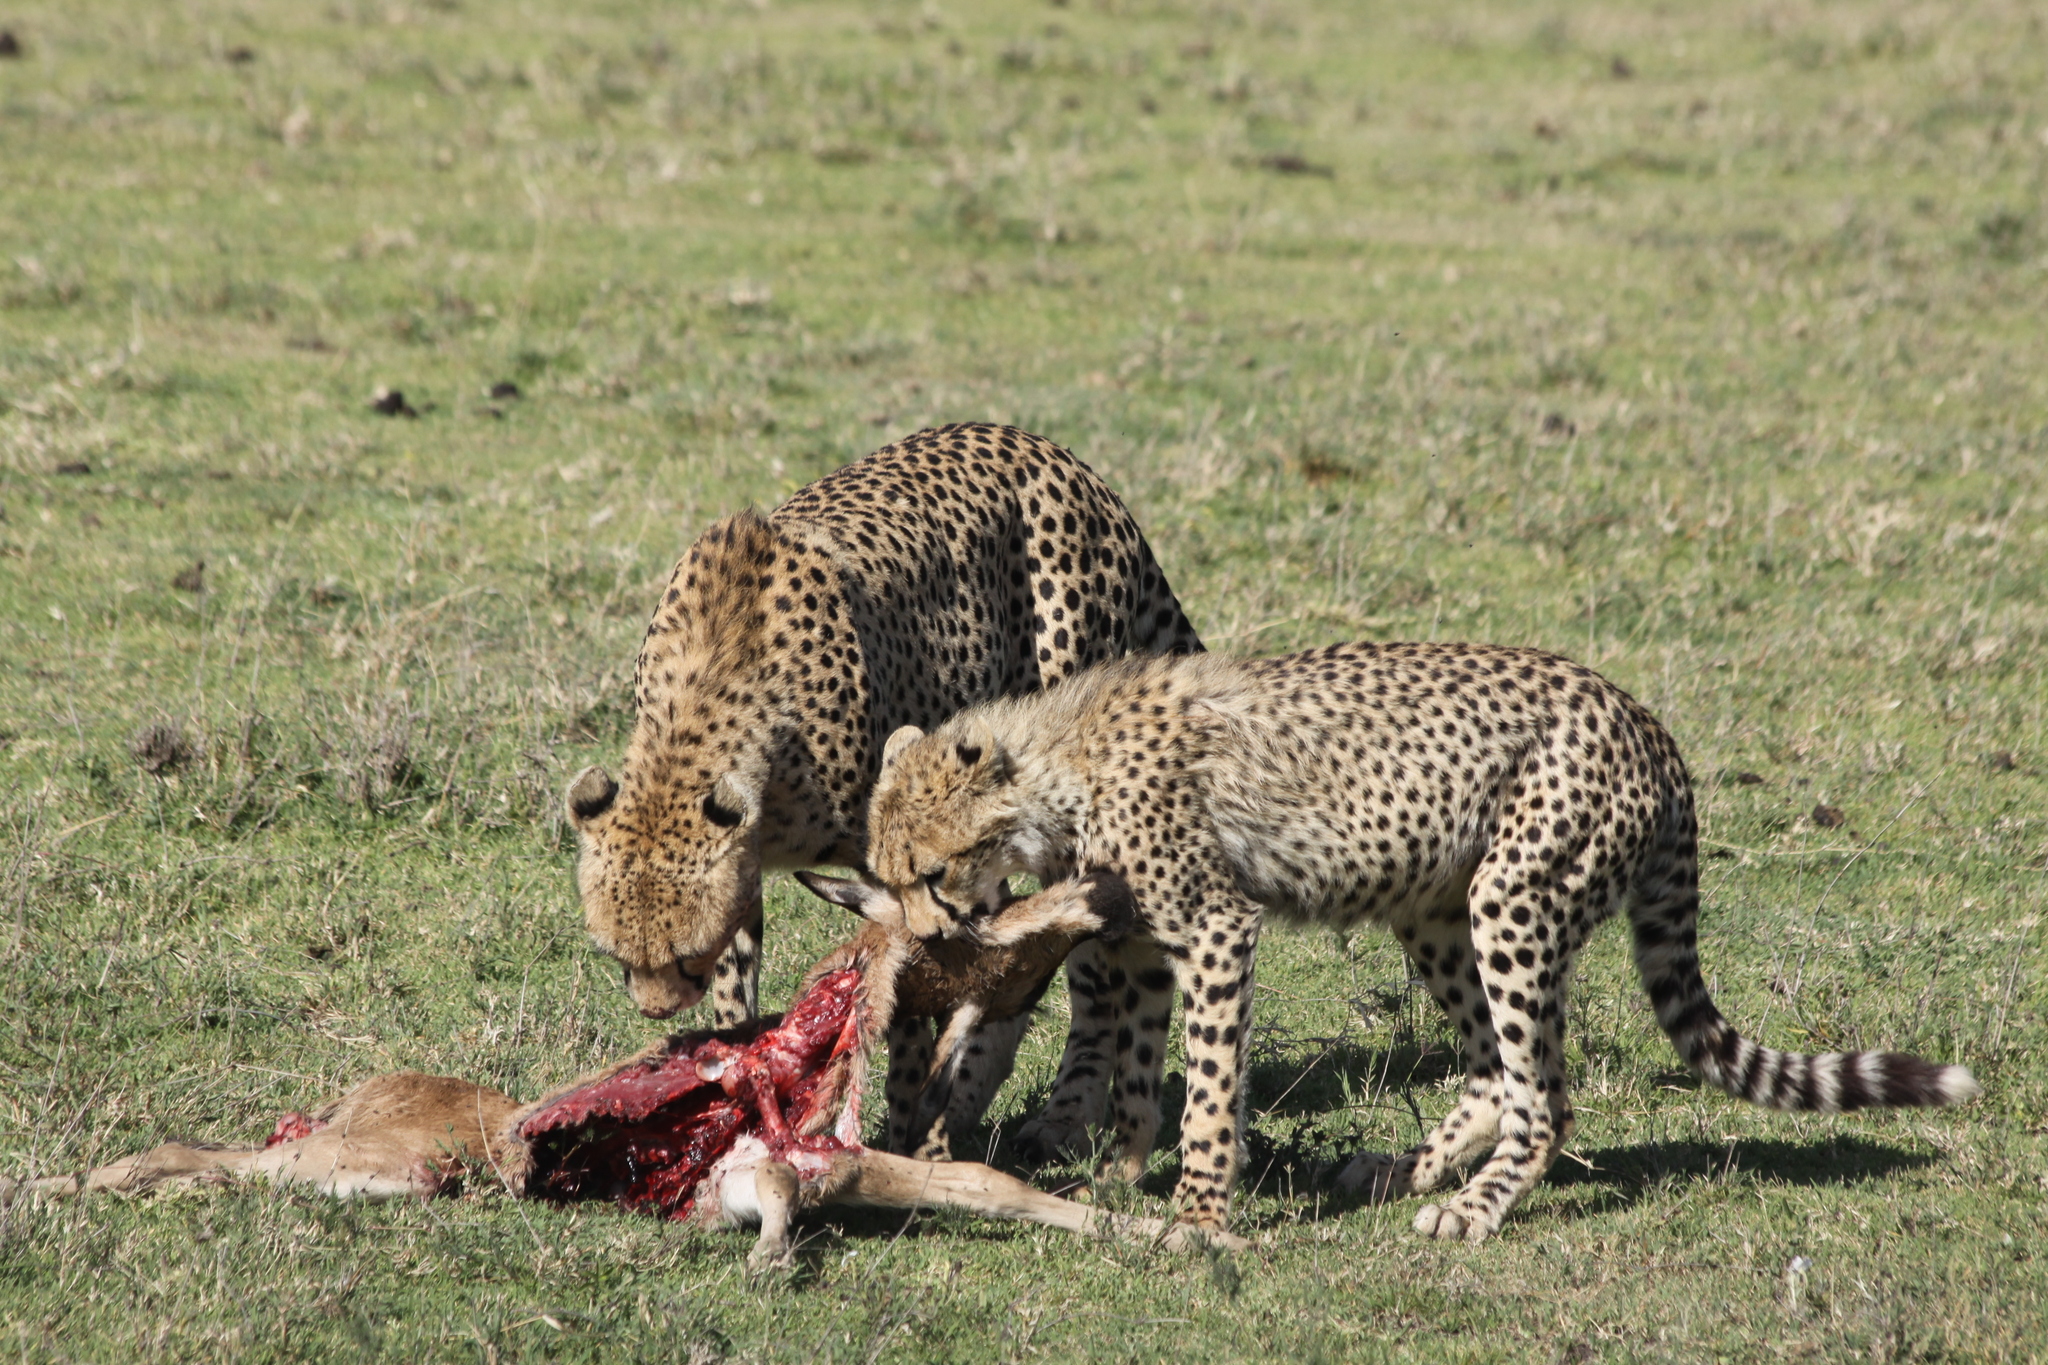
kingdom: Animalia
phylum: Chordata
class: Mammalia
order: Carnivora
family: Felidae
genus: Acinonyx
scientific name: Acinonyx jubatus
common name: Cheetah
